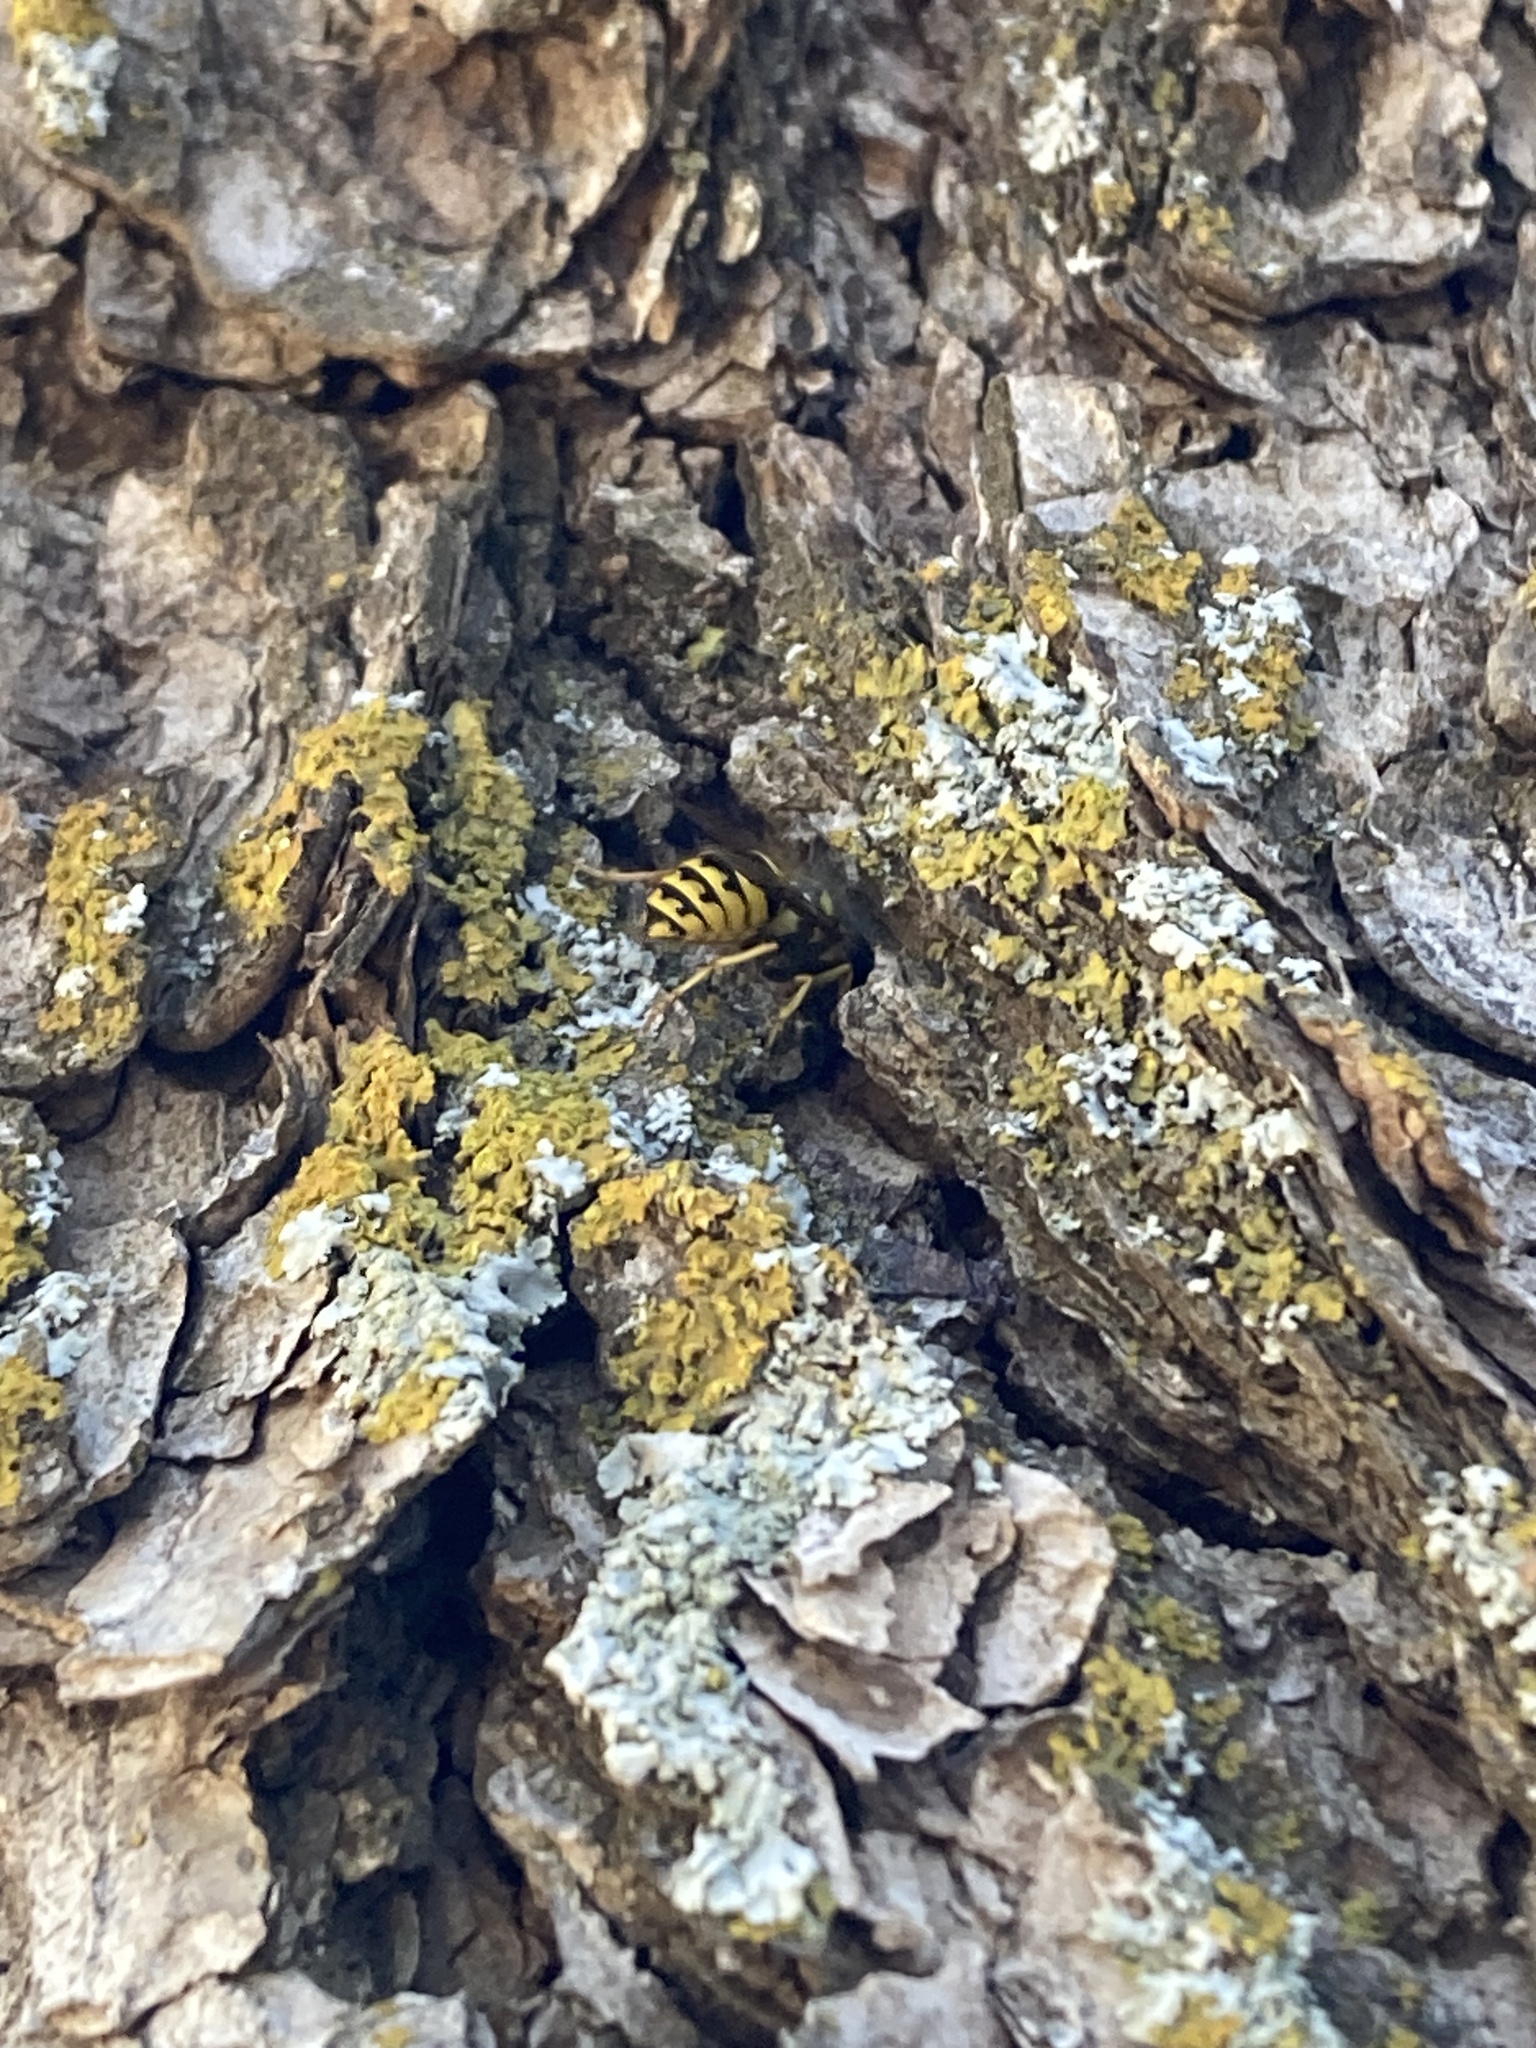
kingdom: Animalia
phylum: Arthropoda
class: Insecta
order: Hymenoptera
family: Vespidae
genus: Vespula
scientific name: Vespula pensylvanica
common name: Western yellowjacket
